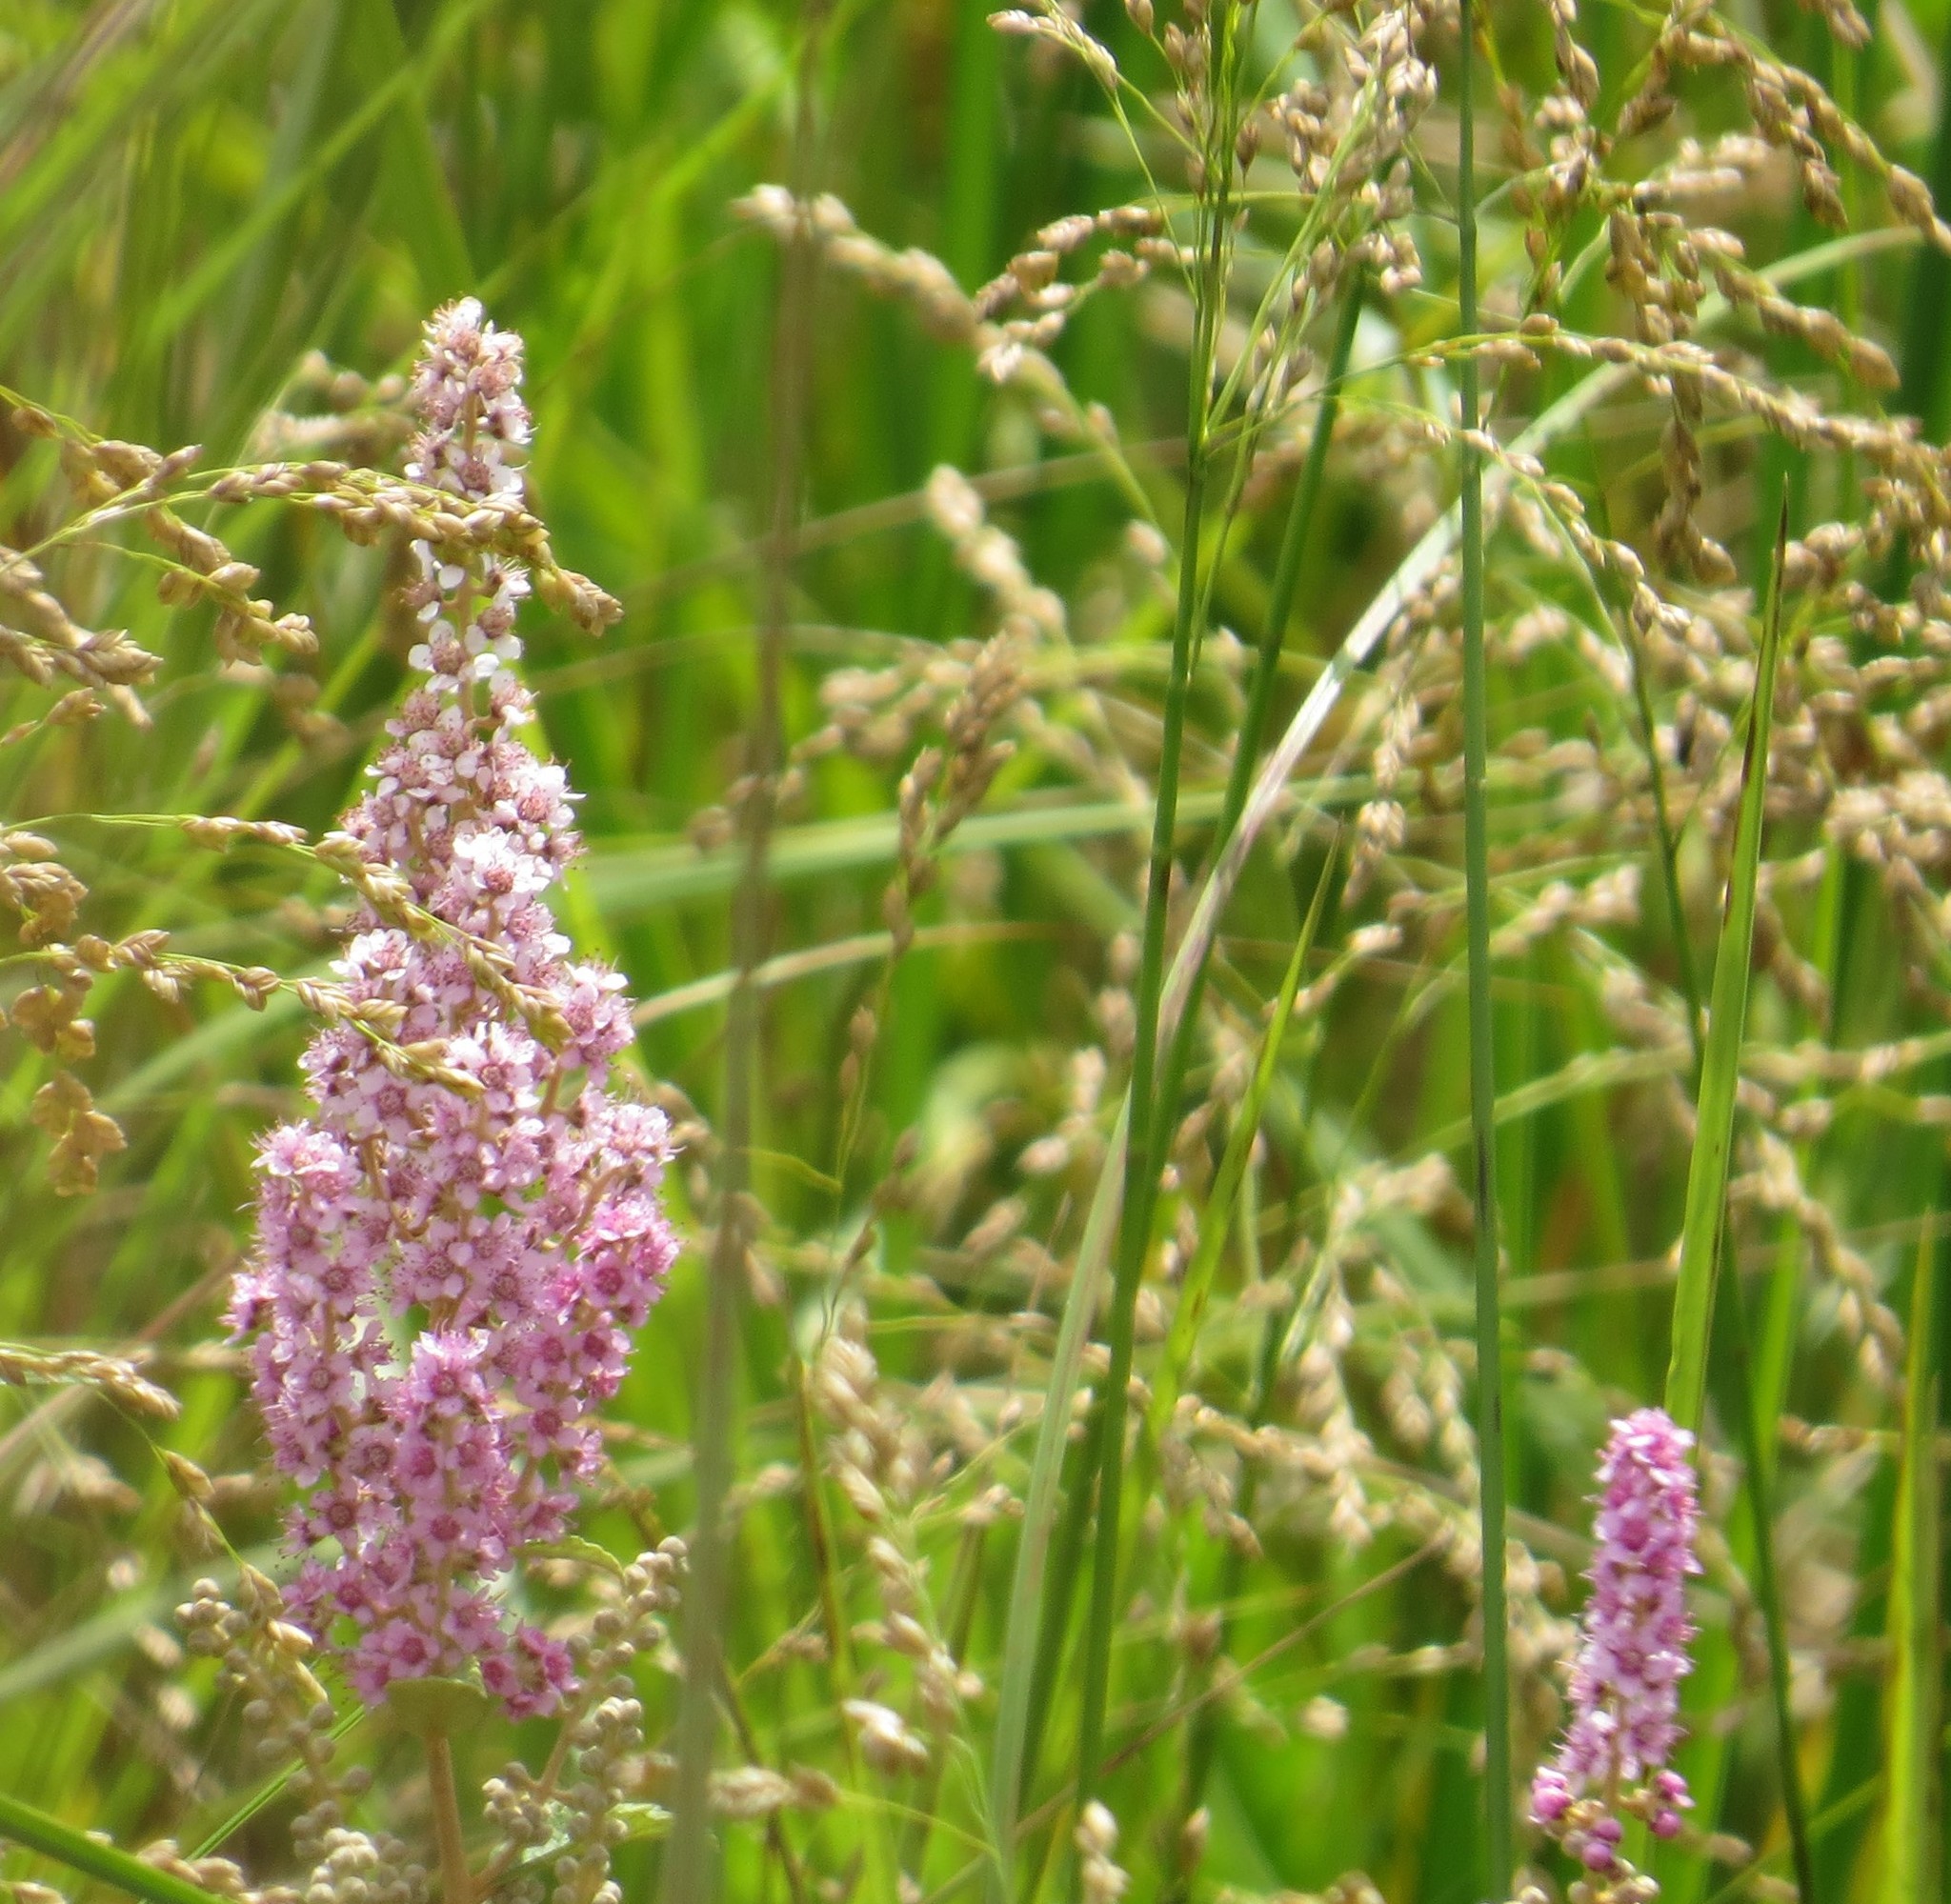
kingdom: Plantae
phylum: Tracheophyta
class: Magnoliopsida
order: Rosales
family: Rosaceae
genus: Spiraea
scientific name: Spiraea tomentosa
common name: Hardhack
